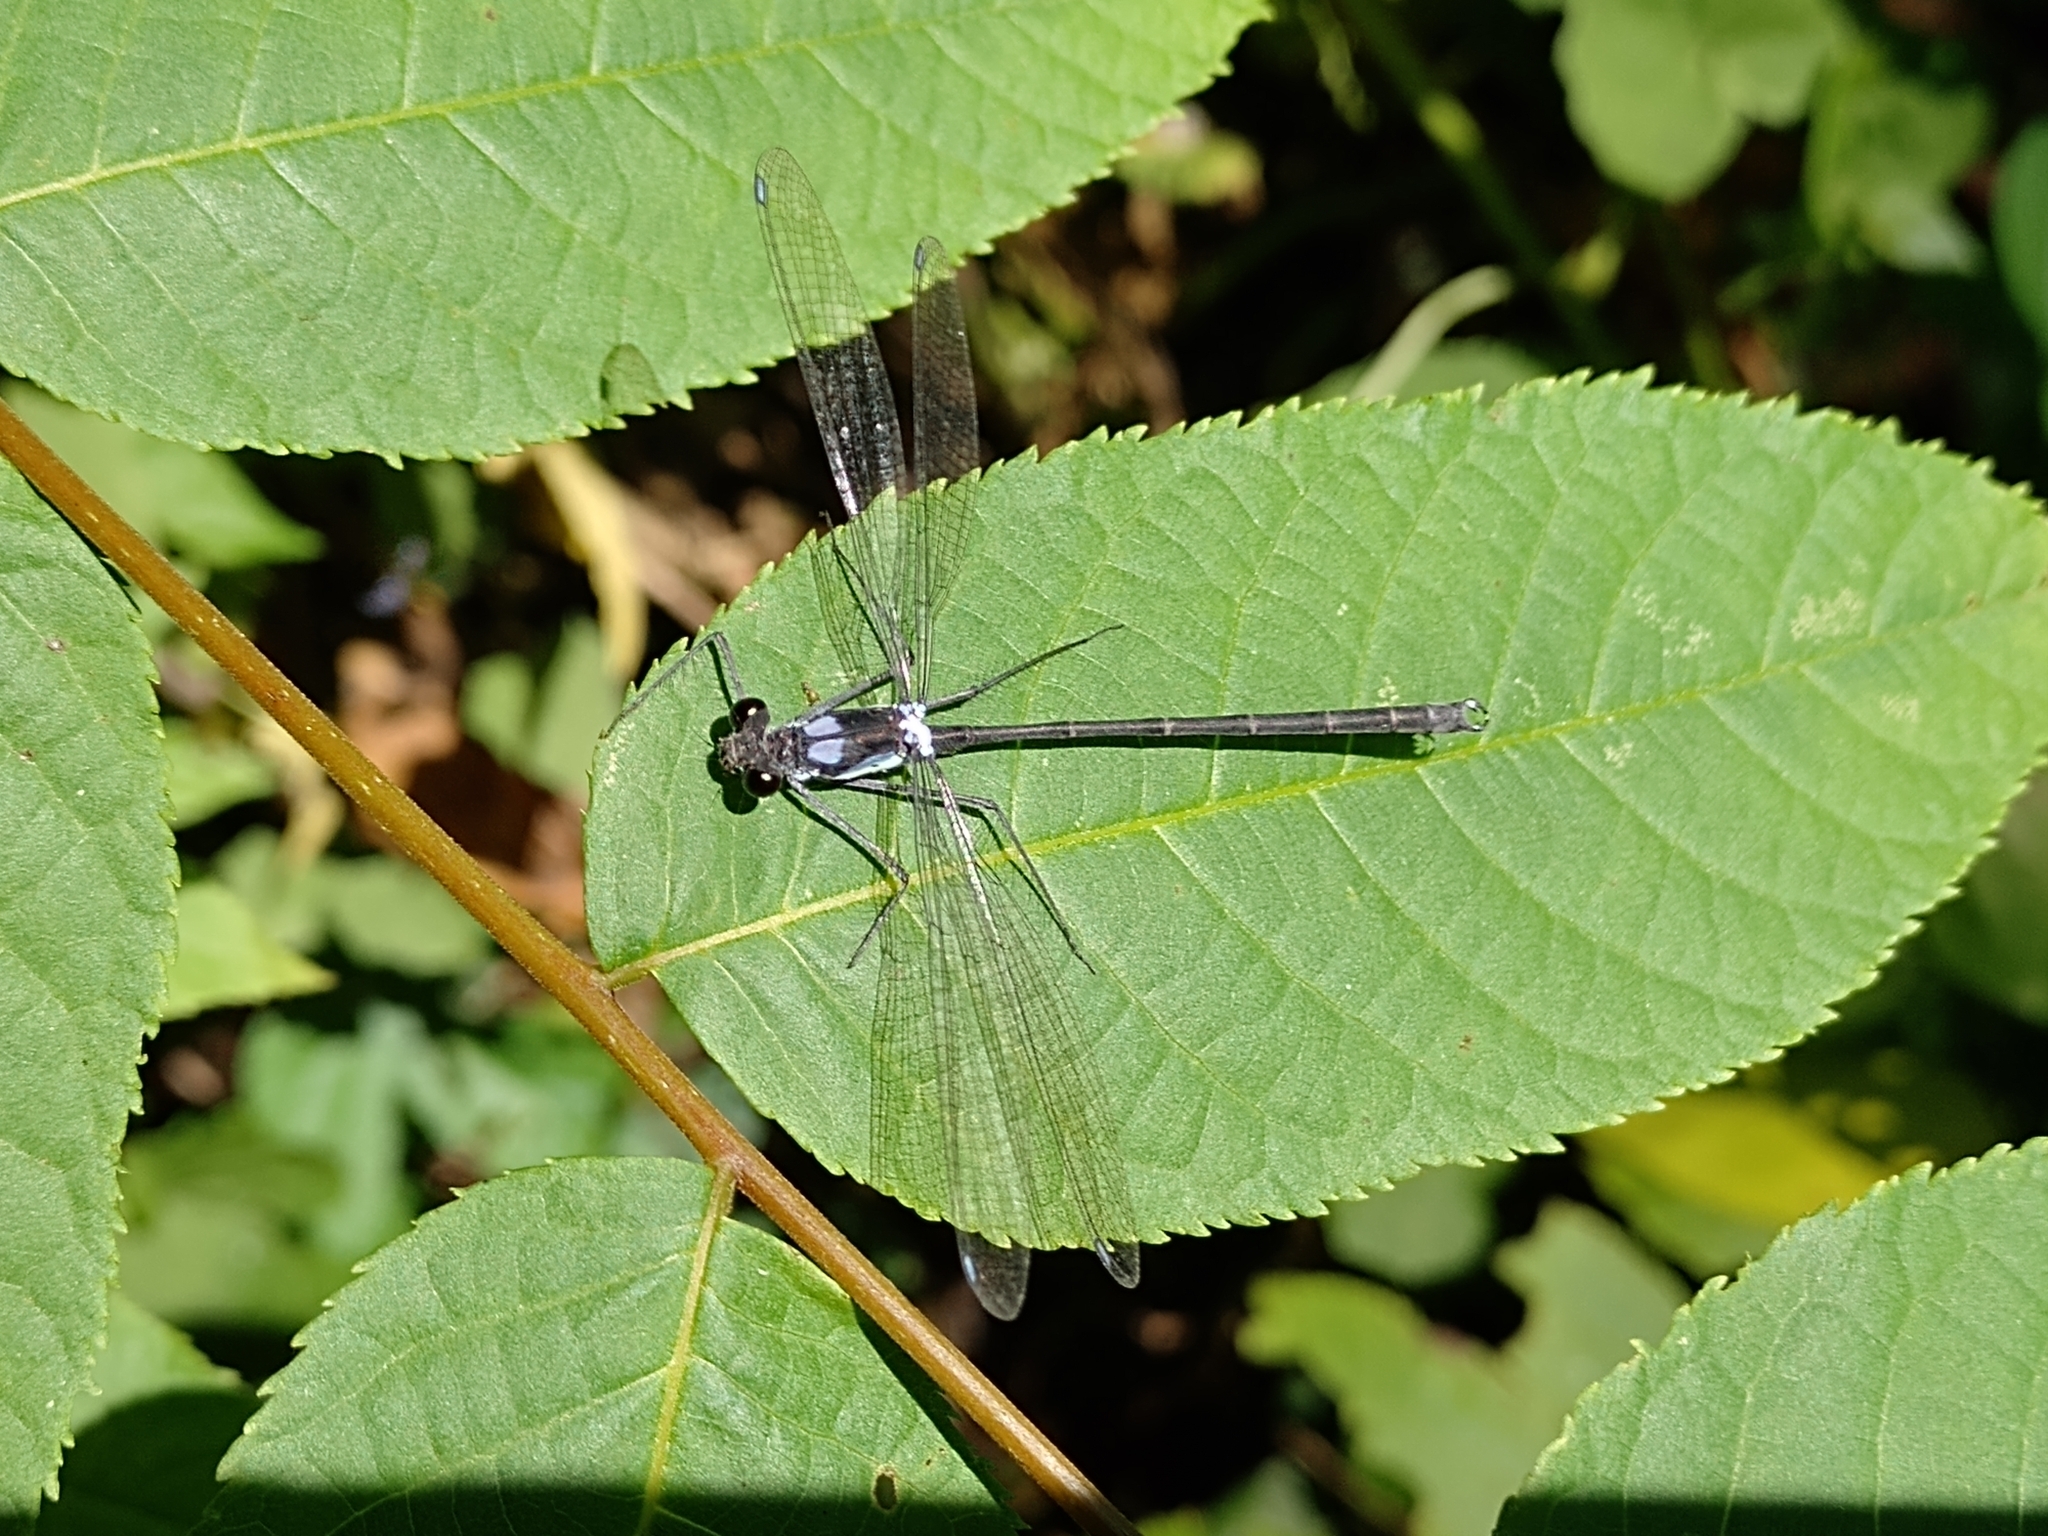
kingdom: Animalia
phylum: Arthropoda
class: Insecta
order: Odonata
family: Megapodagrionidae
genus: Teinopodagrion
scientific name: Teinopodagrion meridionale
